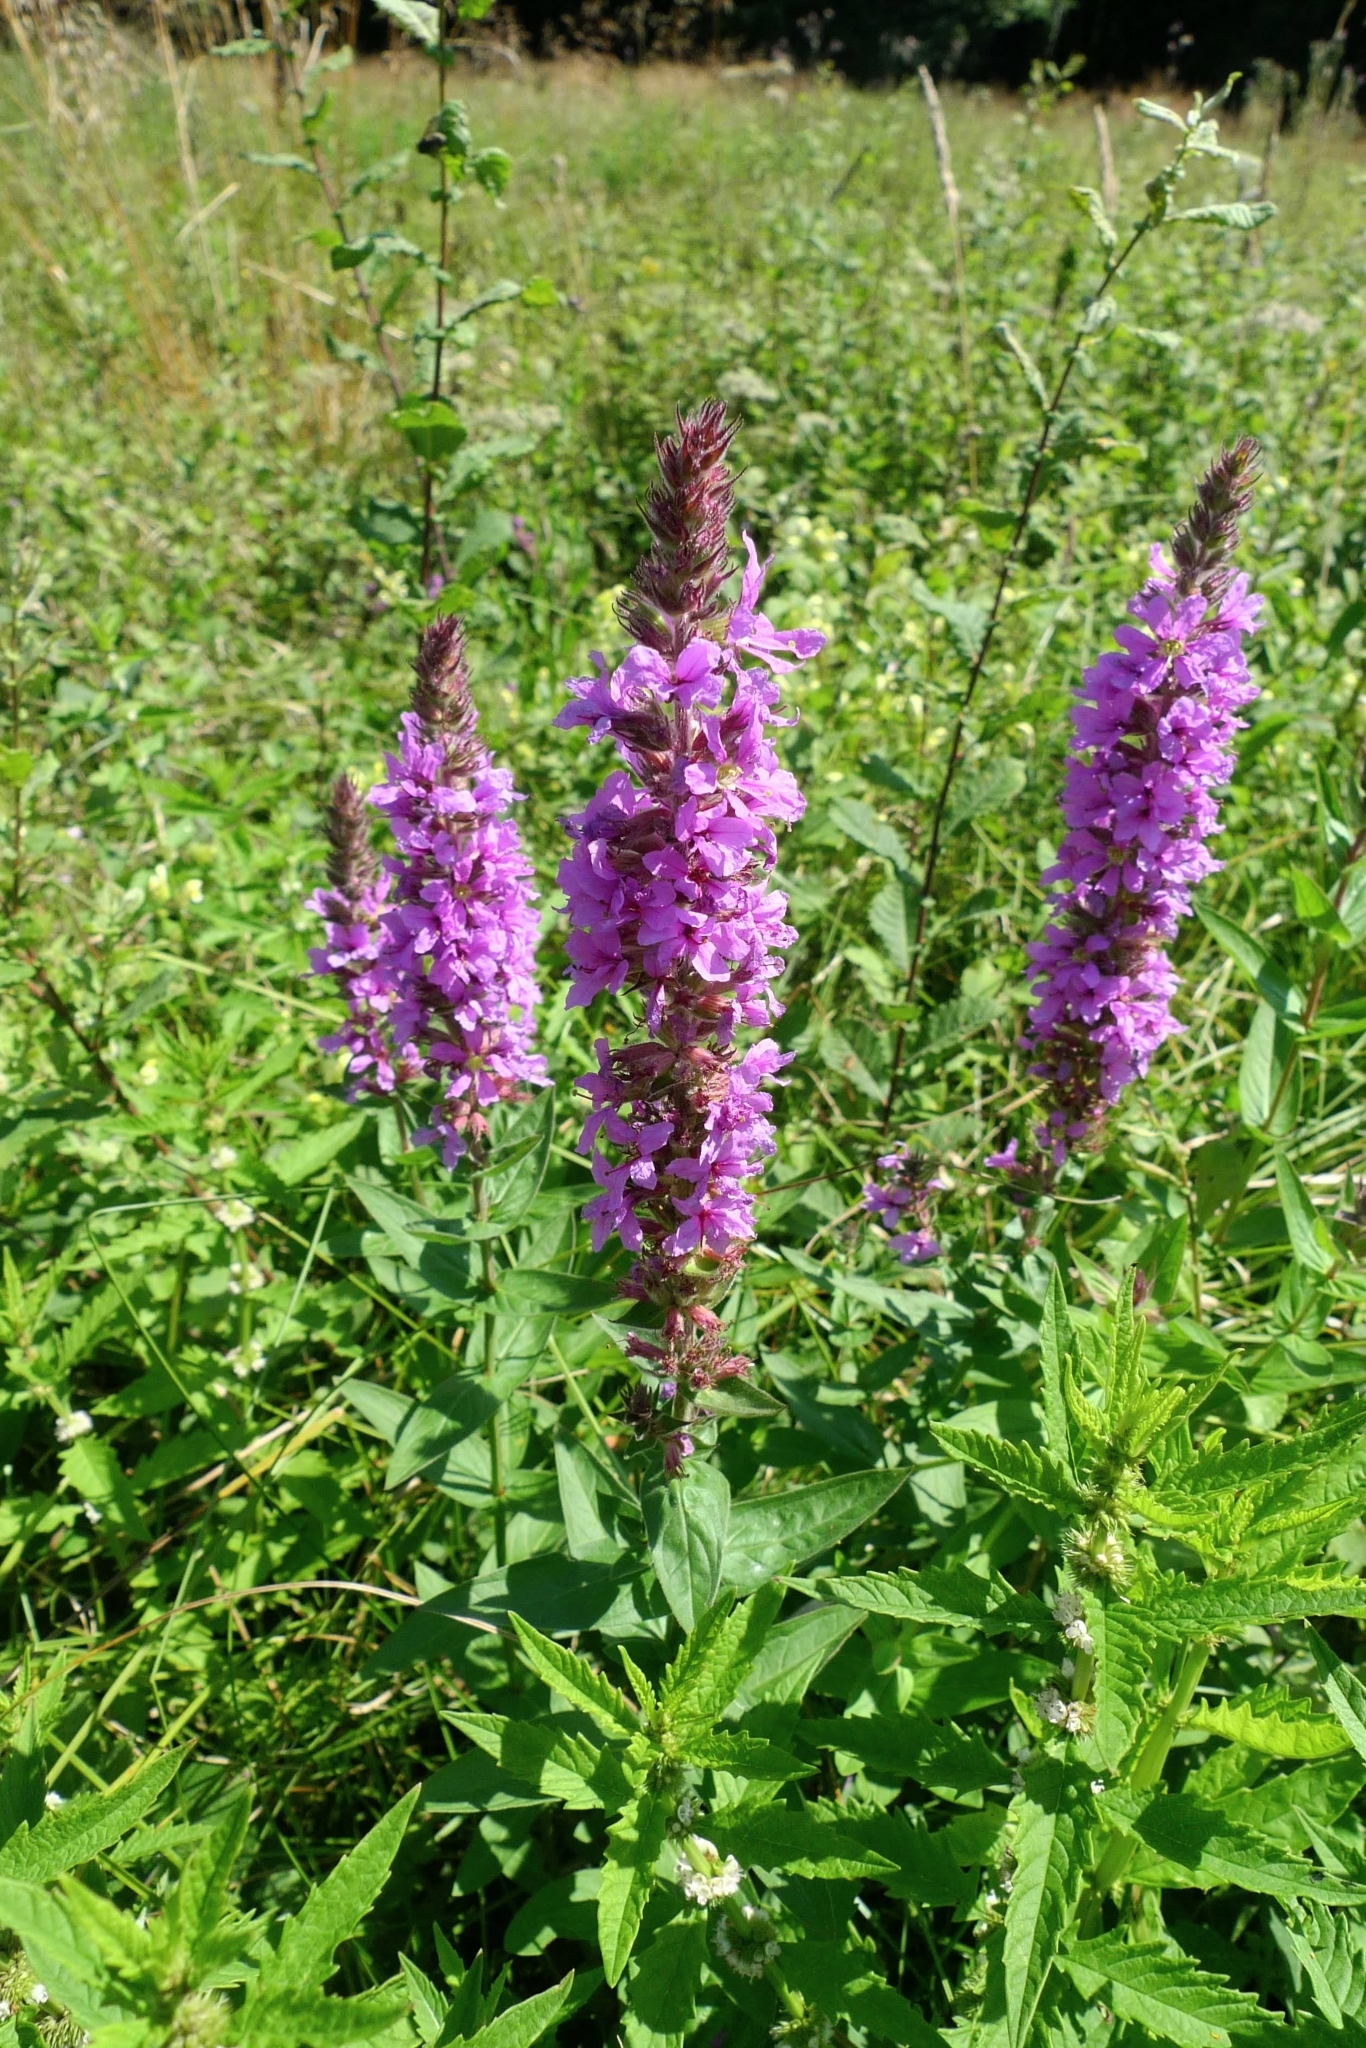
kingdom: Plantae
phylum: Tracheophyta
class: Magnoliopsida
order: Myrtales
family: Lythraceae
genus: Lythrum
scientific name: Lythrum salicaria
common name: Purple loosestrife
